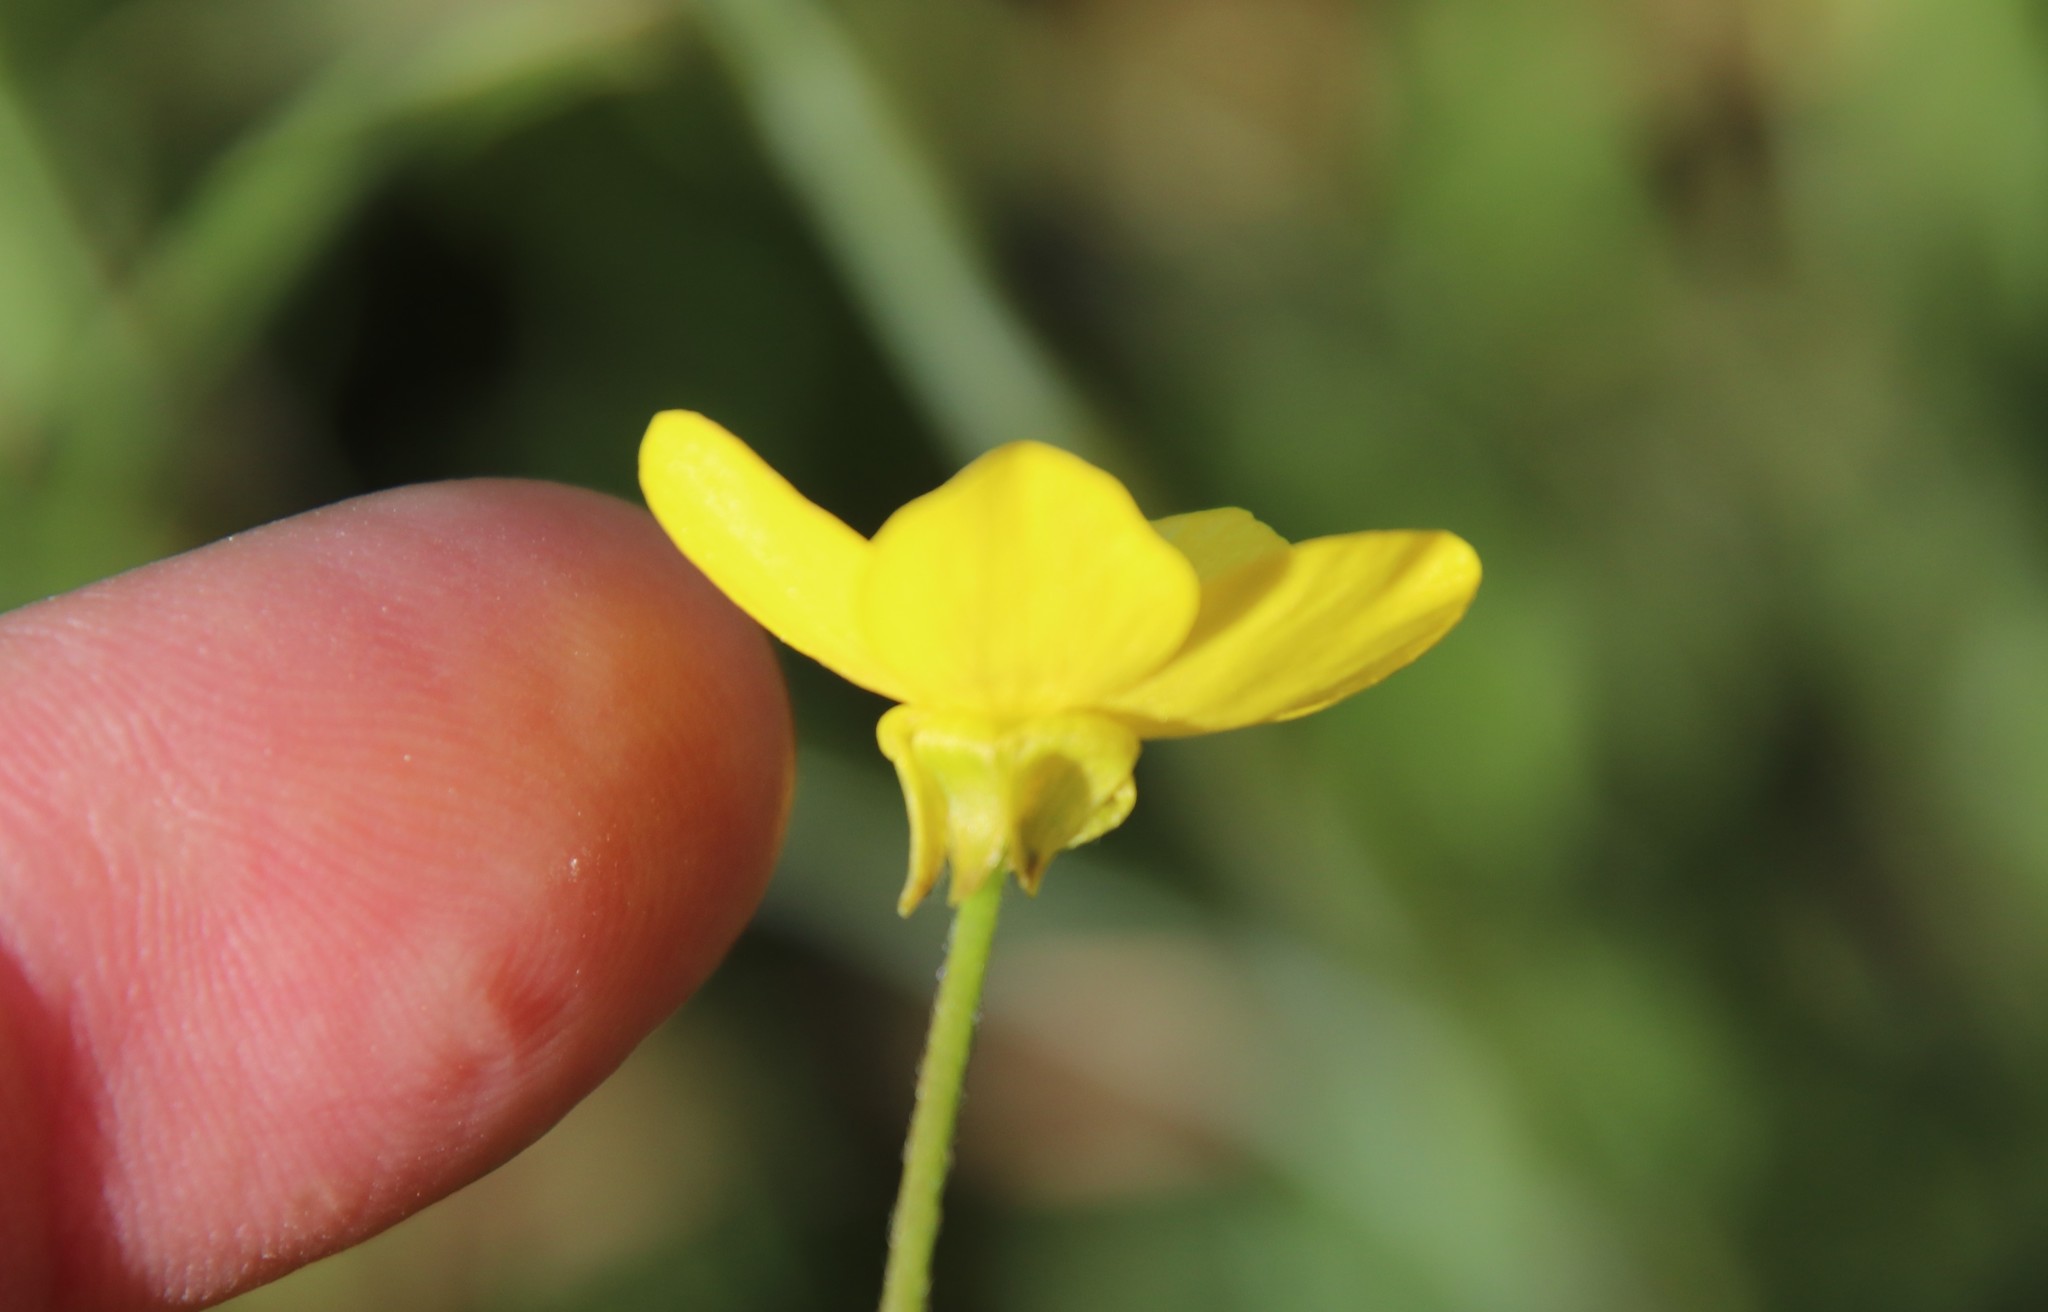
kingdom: Plantae
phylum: Tracheophyta
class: Magnoliopsida
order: Ranunculales
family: Ranunculaceae
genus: Ranunculus
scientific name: Ranunculus occidentalis
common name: Western buttercup
